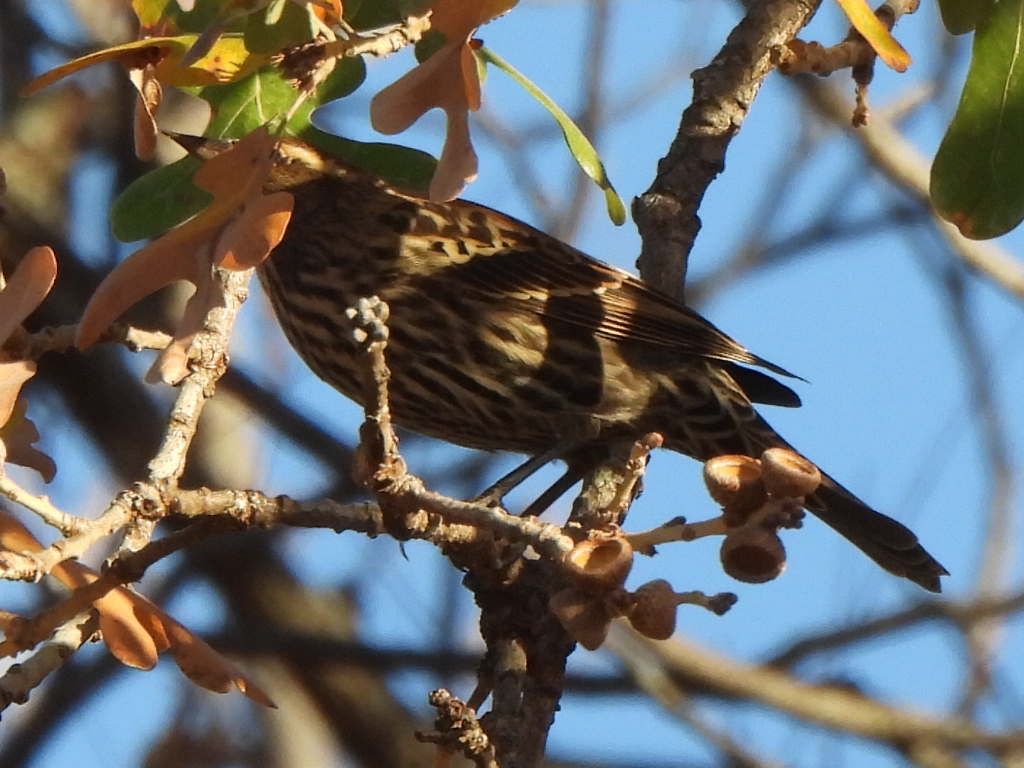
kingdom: Animalia
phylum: Chordata
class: Aves
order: Passeriformes
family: Icteridae
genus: Agelaius
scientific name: Agelaius phoeniceus
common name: Red-winged blackbird
